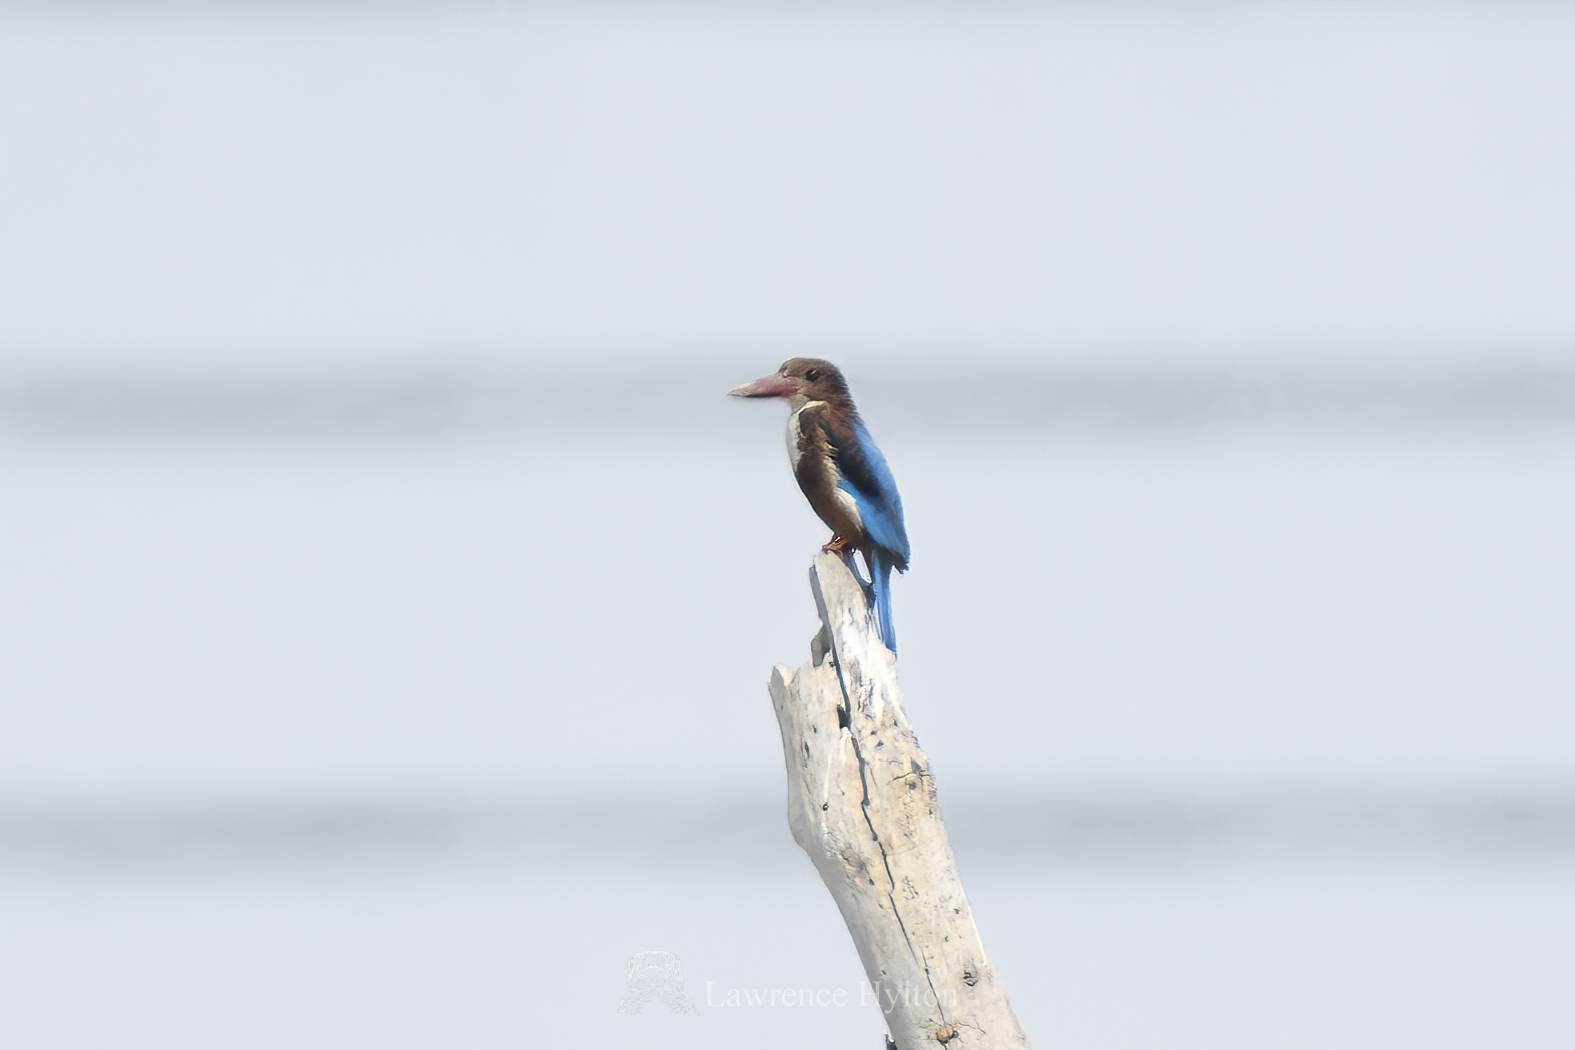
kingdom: Animalia
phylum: Chordata
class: Aves
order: Coraciiformes
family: Alcedinidae
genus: Halcyon
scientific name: Halcyon smyrnensis
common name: White-throated kingfisher
